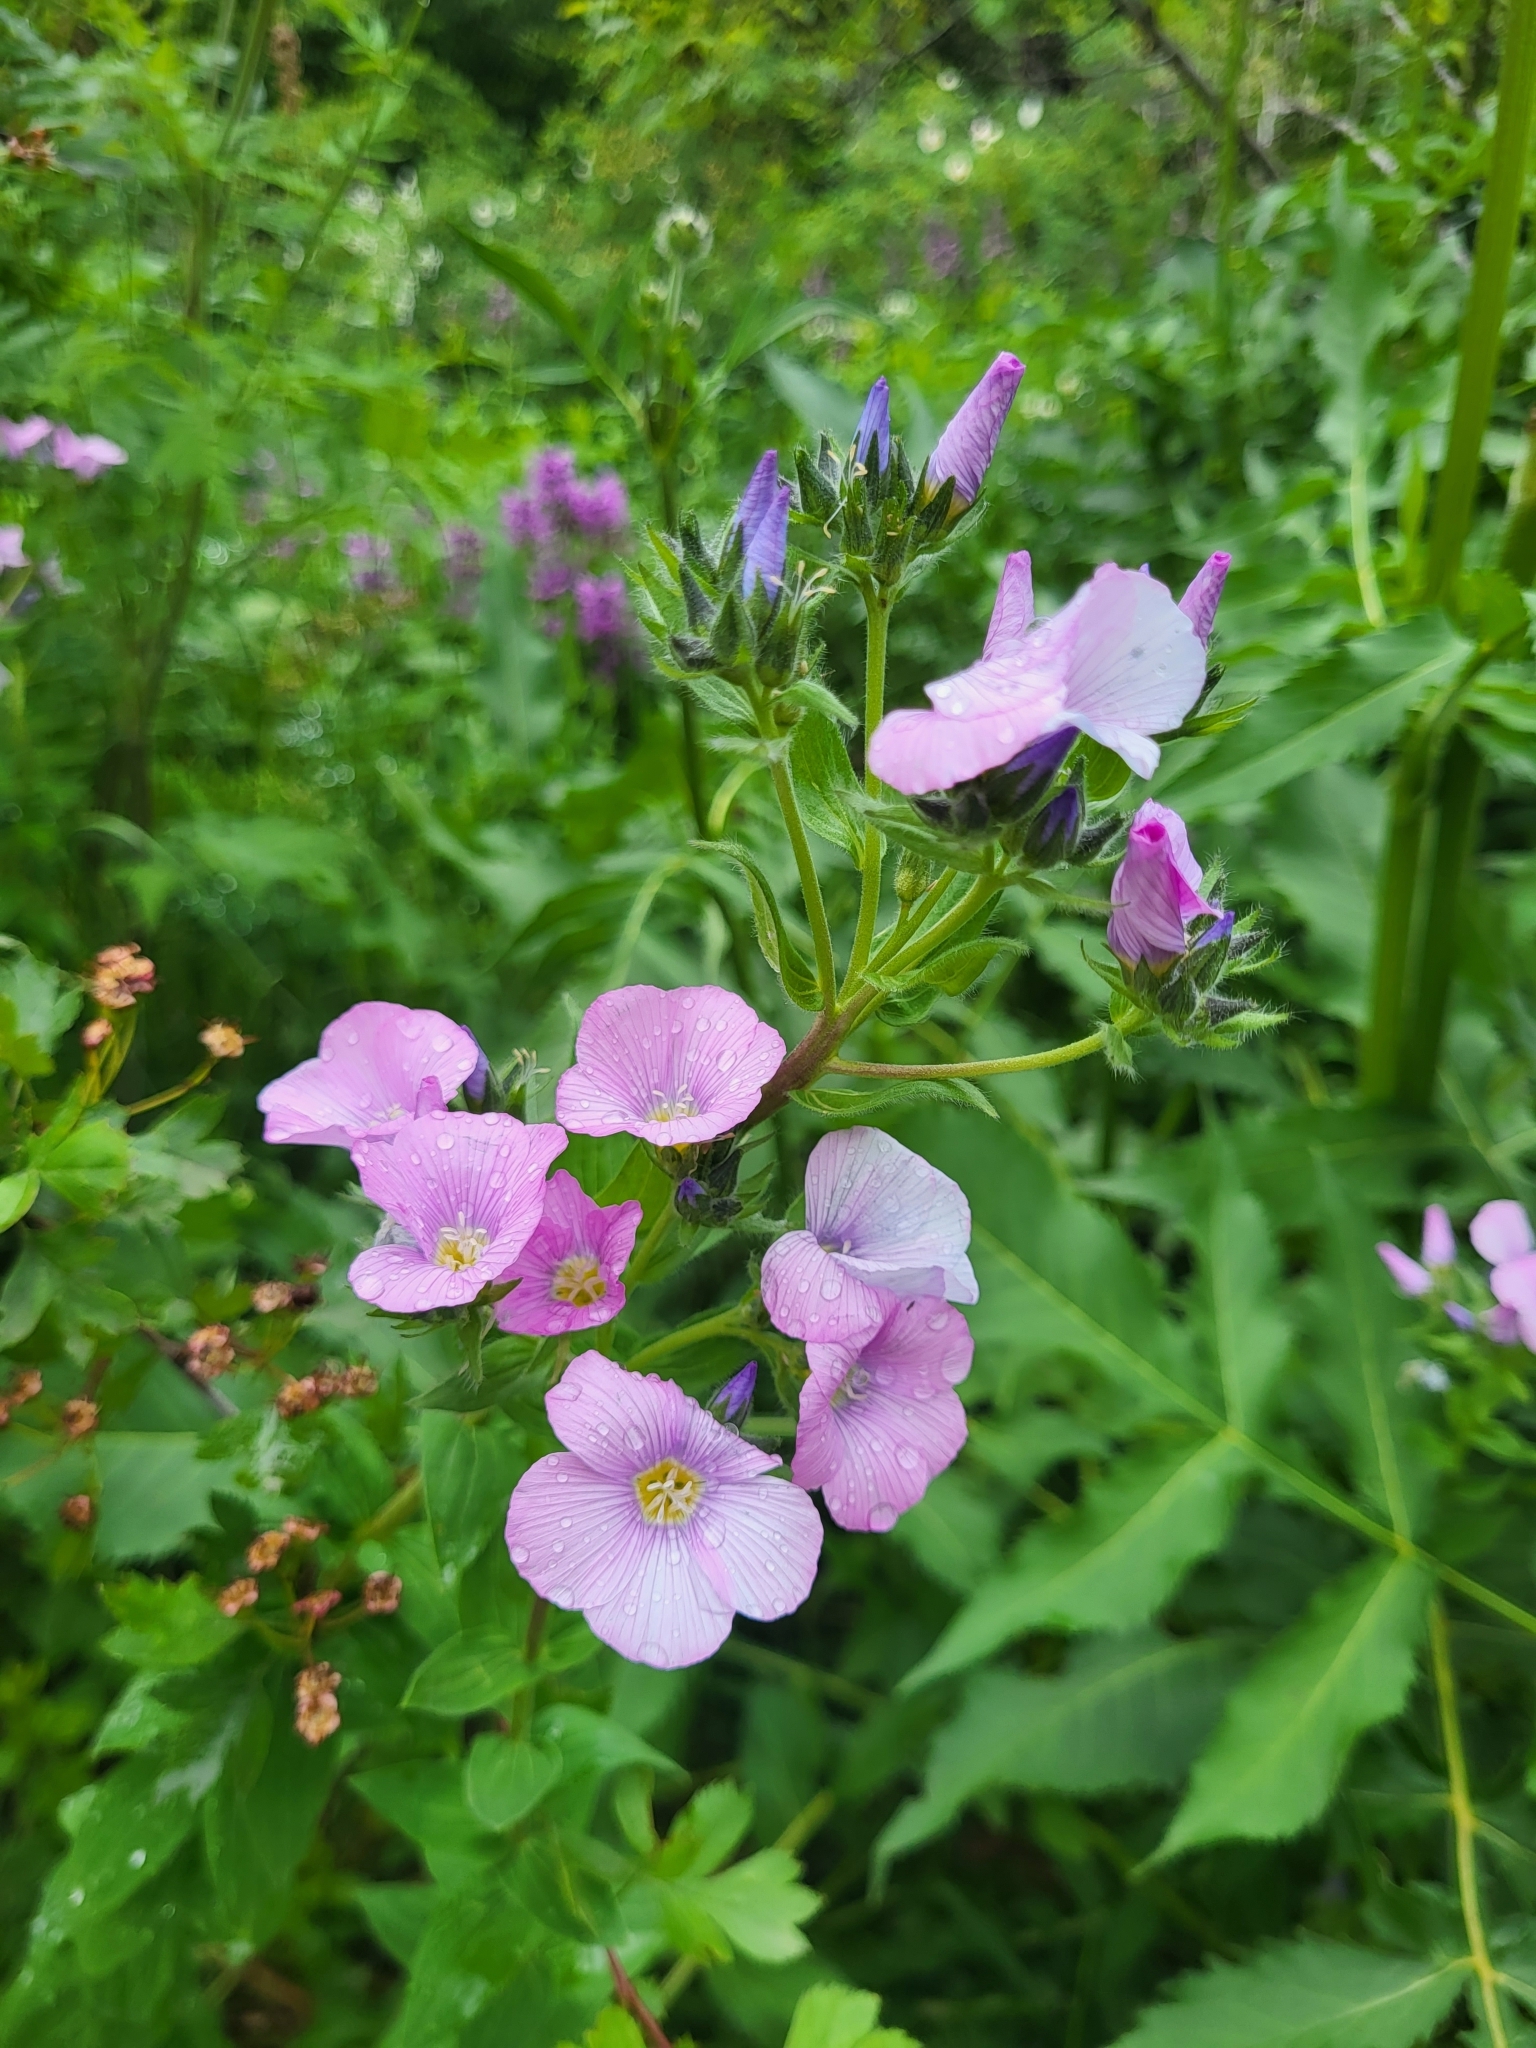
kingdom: Plantae
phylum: Tracheophyta
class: Magnoliopsida
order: Malpighiales
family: Linaceae
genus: Linum
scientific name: Linum hypericifolium
